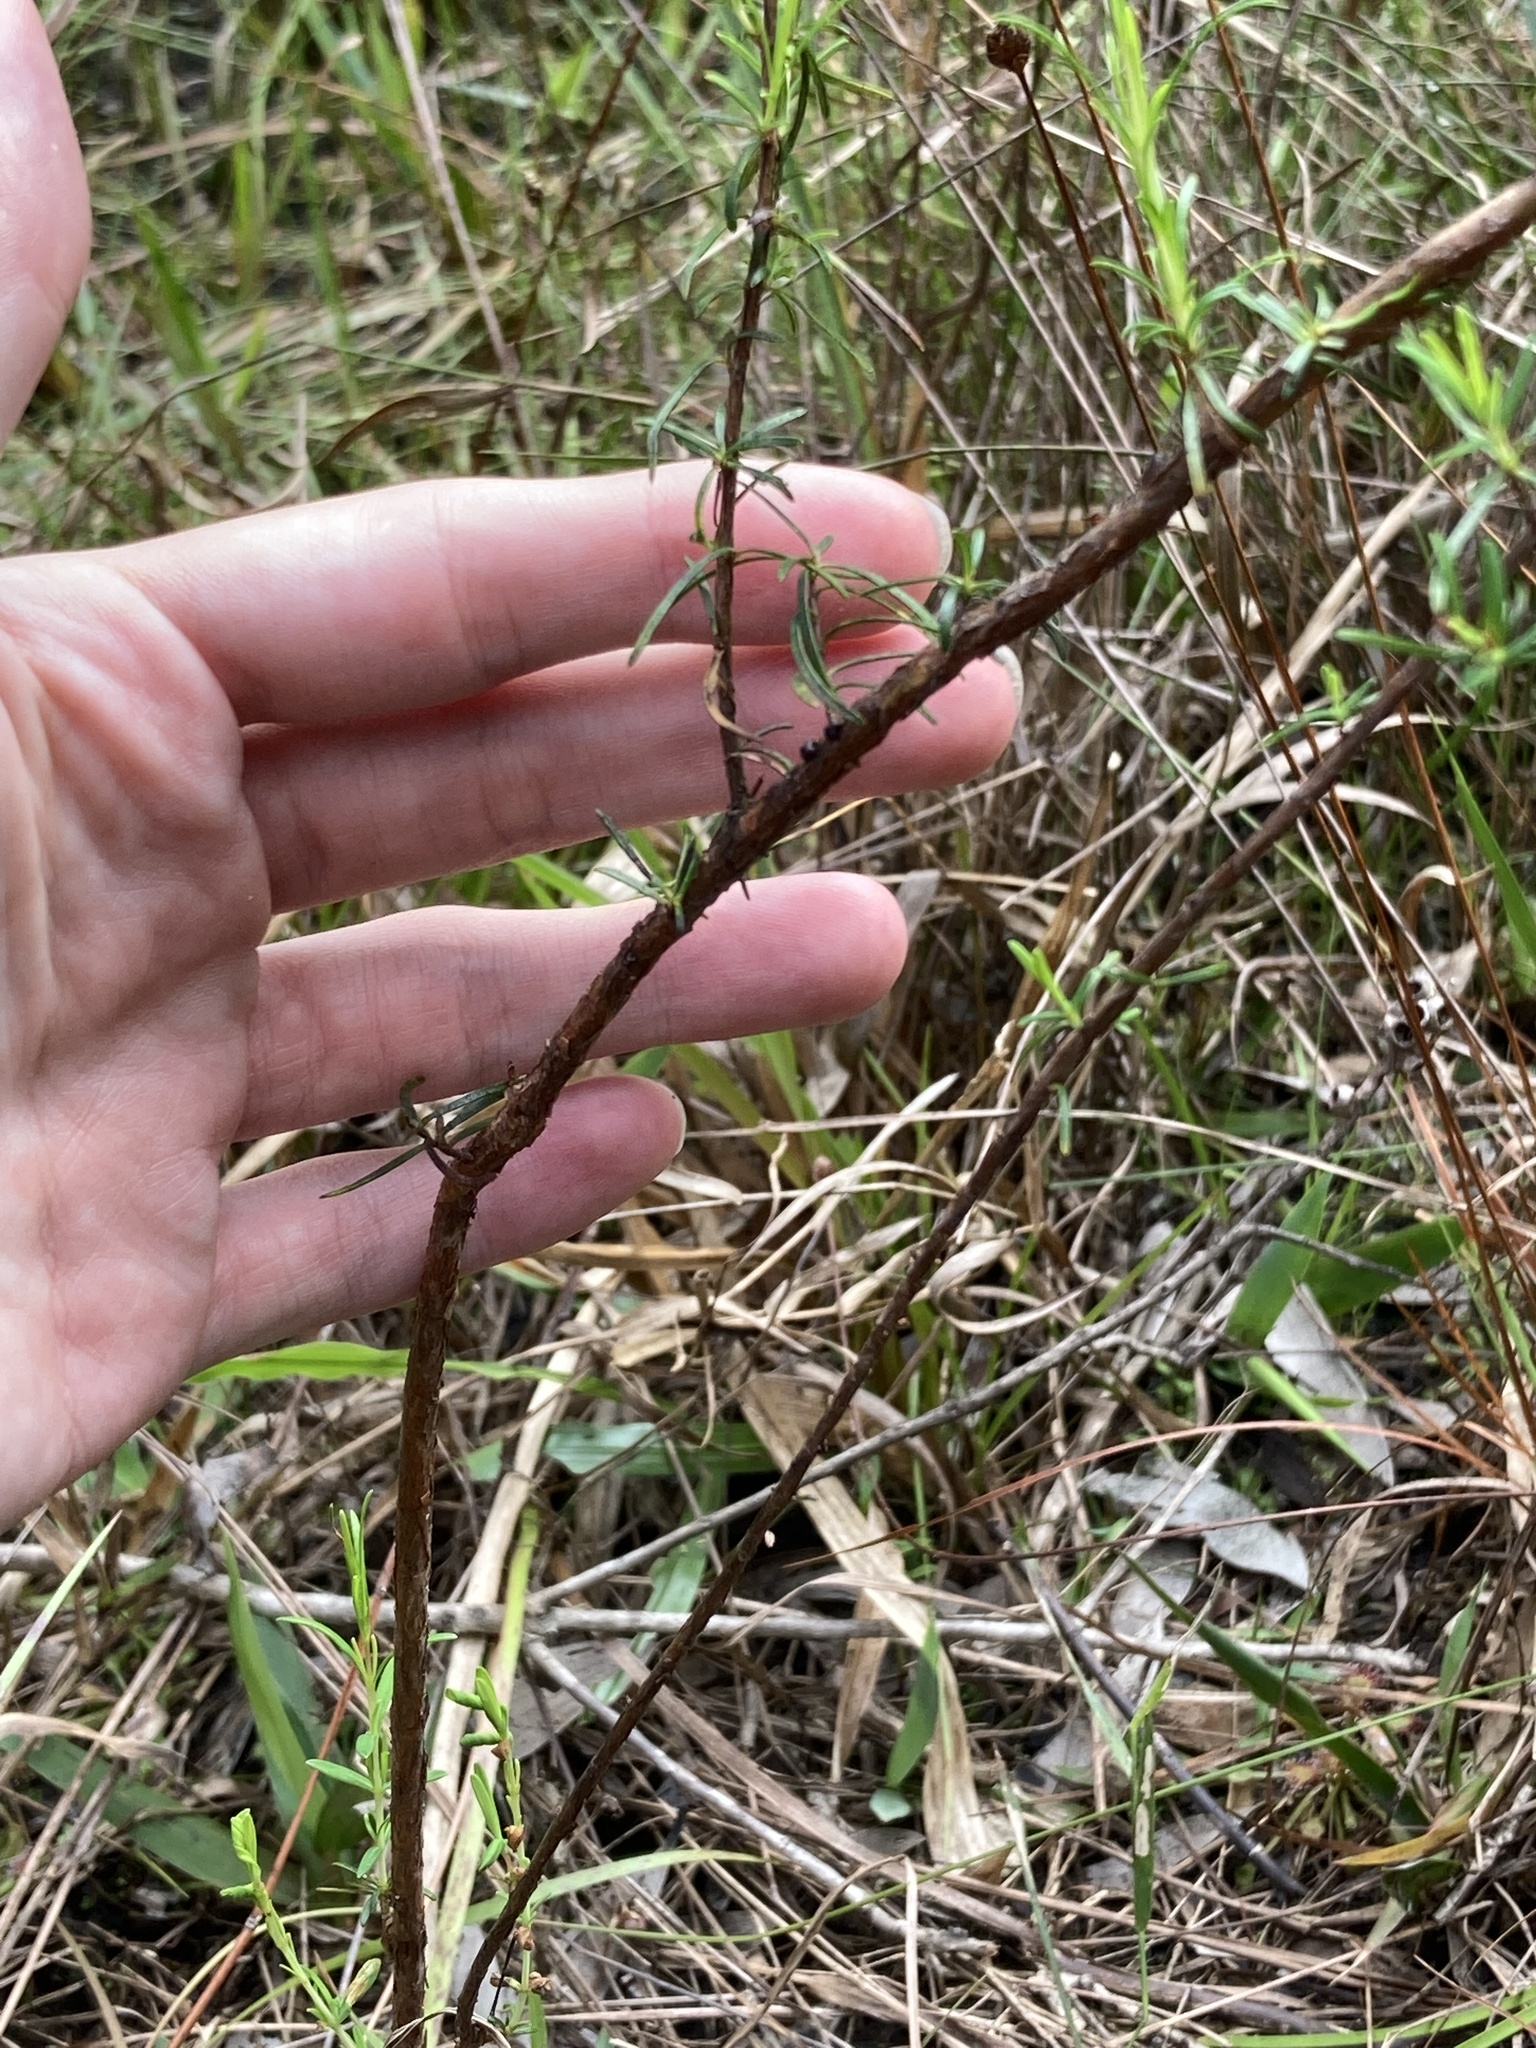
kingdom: Plantae
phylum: Tracheophyta
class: Magnoliopsida
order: Malpighiales
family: Hypericaceae
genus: Hypericum
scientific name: Hypericum fasciculatum
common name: Peelbark st. john's wort
